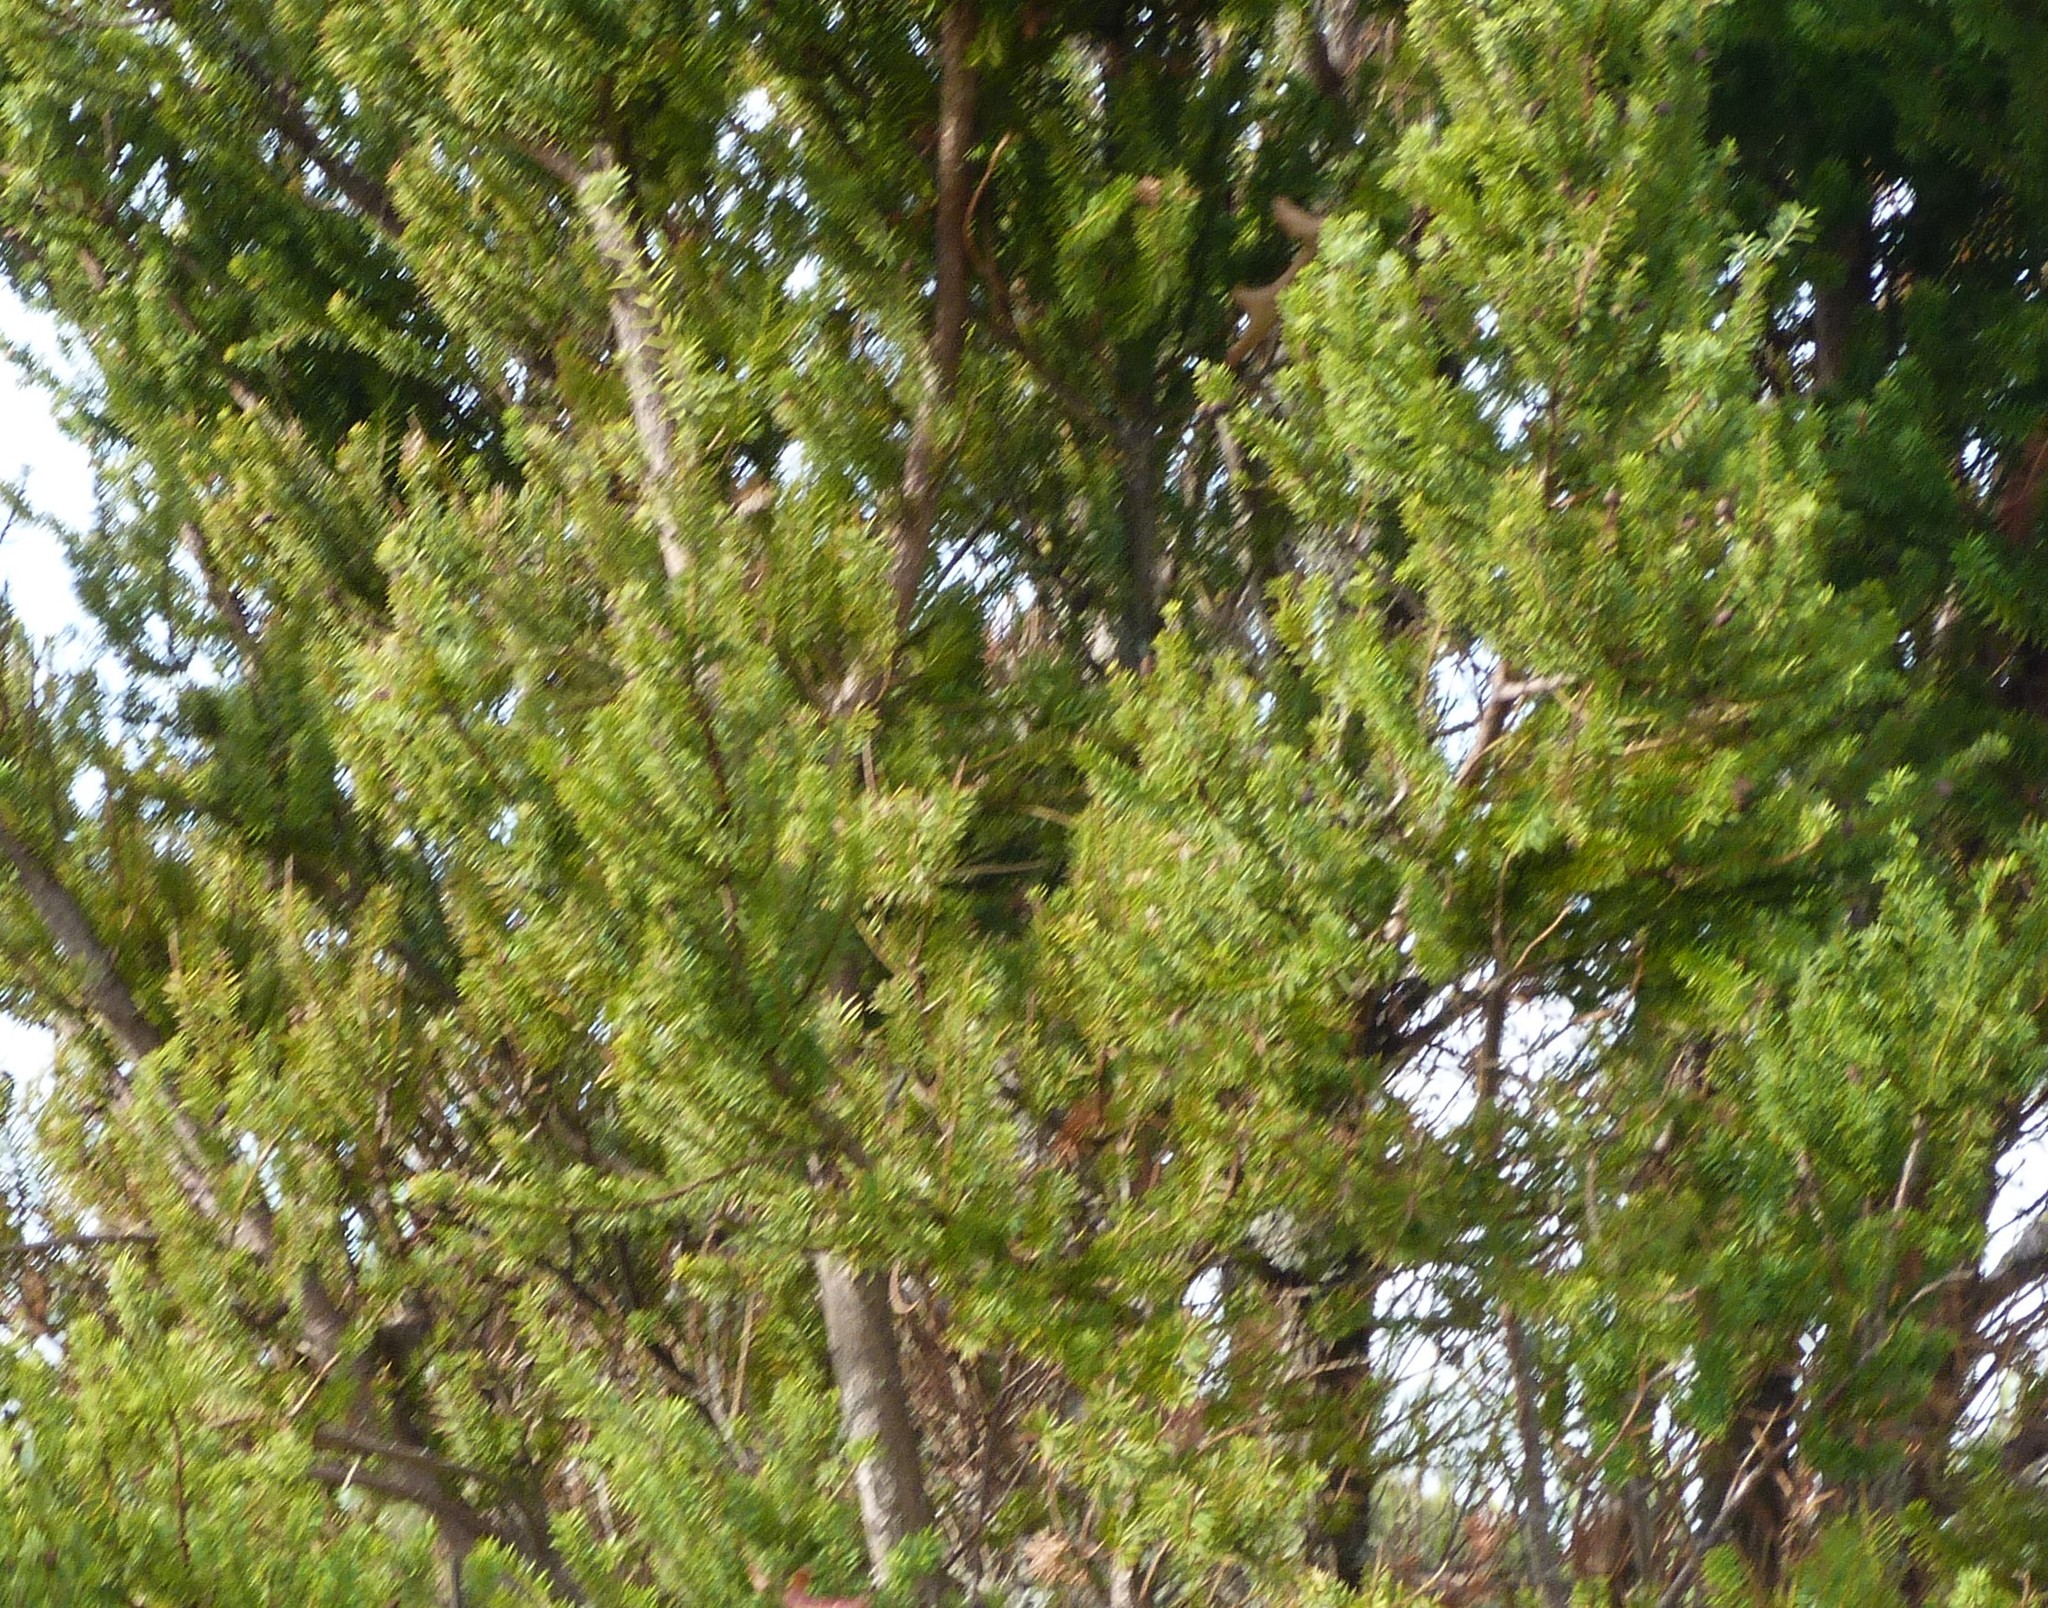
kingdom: Animalia
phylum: Chordata
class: Aves
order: Passeriformes
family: Passeridae
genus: Passer
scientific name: Passer domesticus
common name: House sparrow
